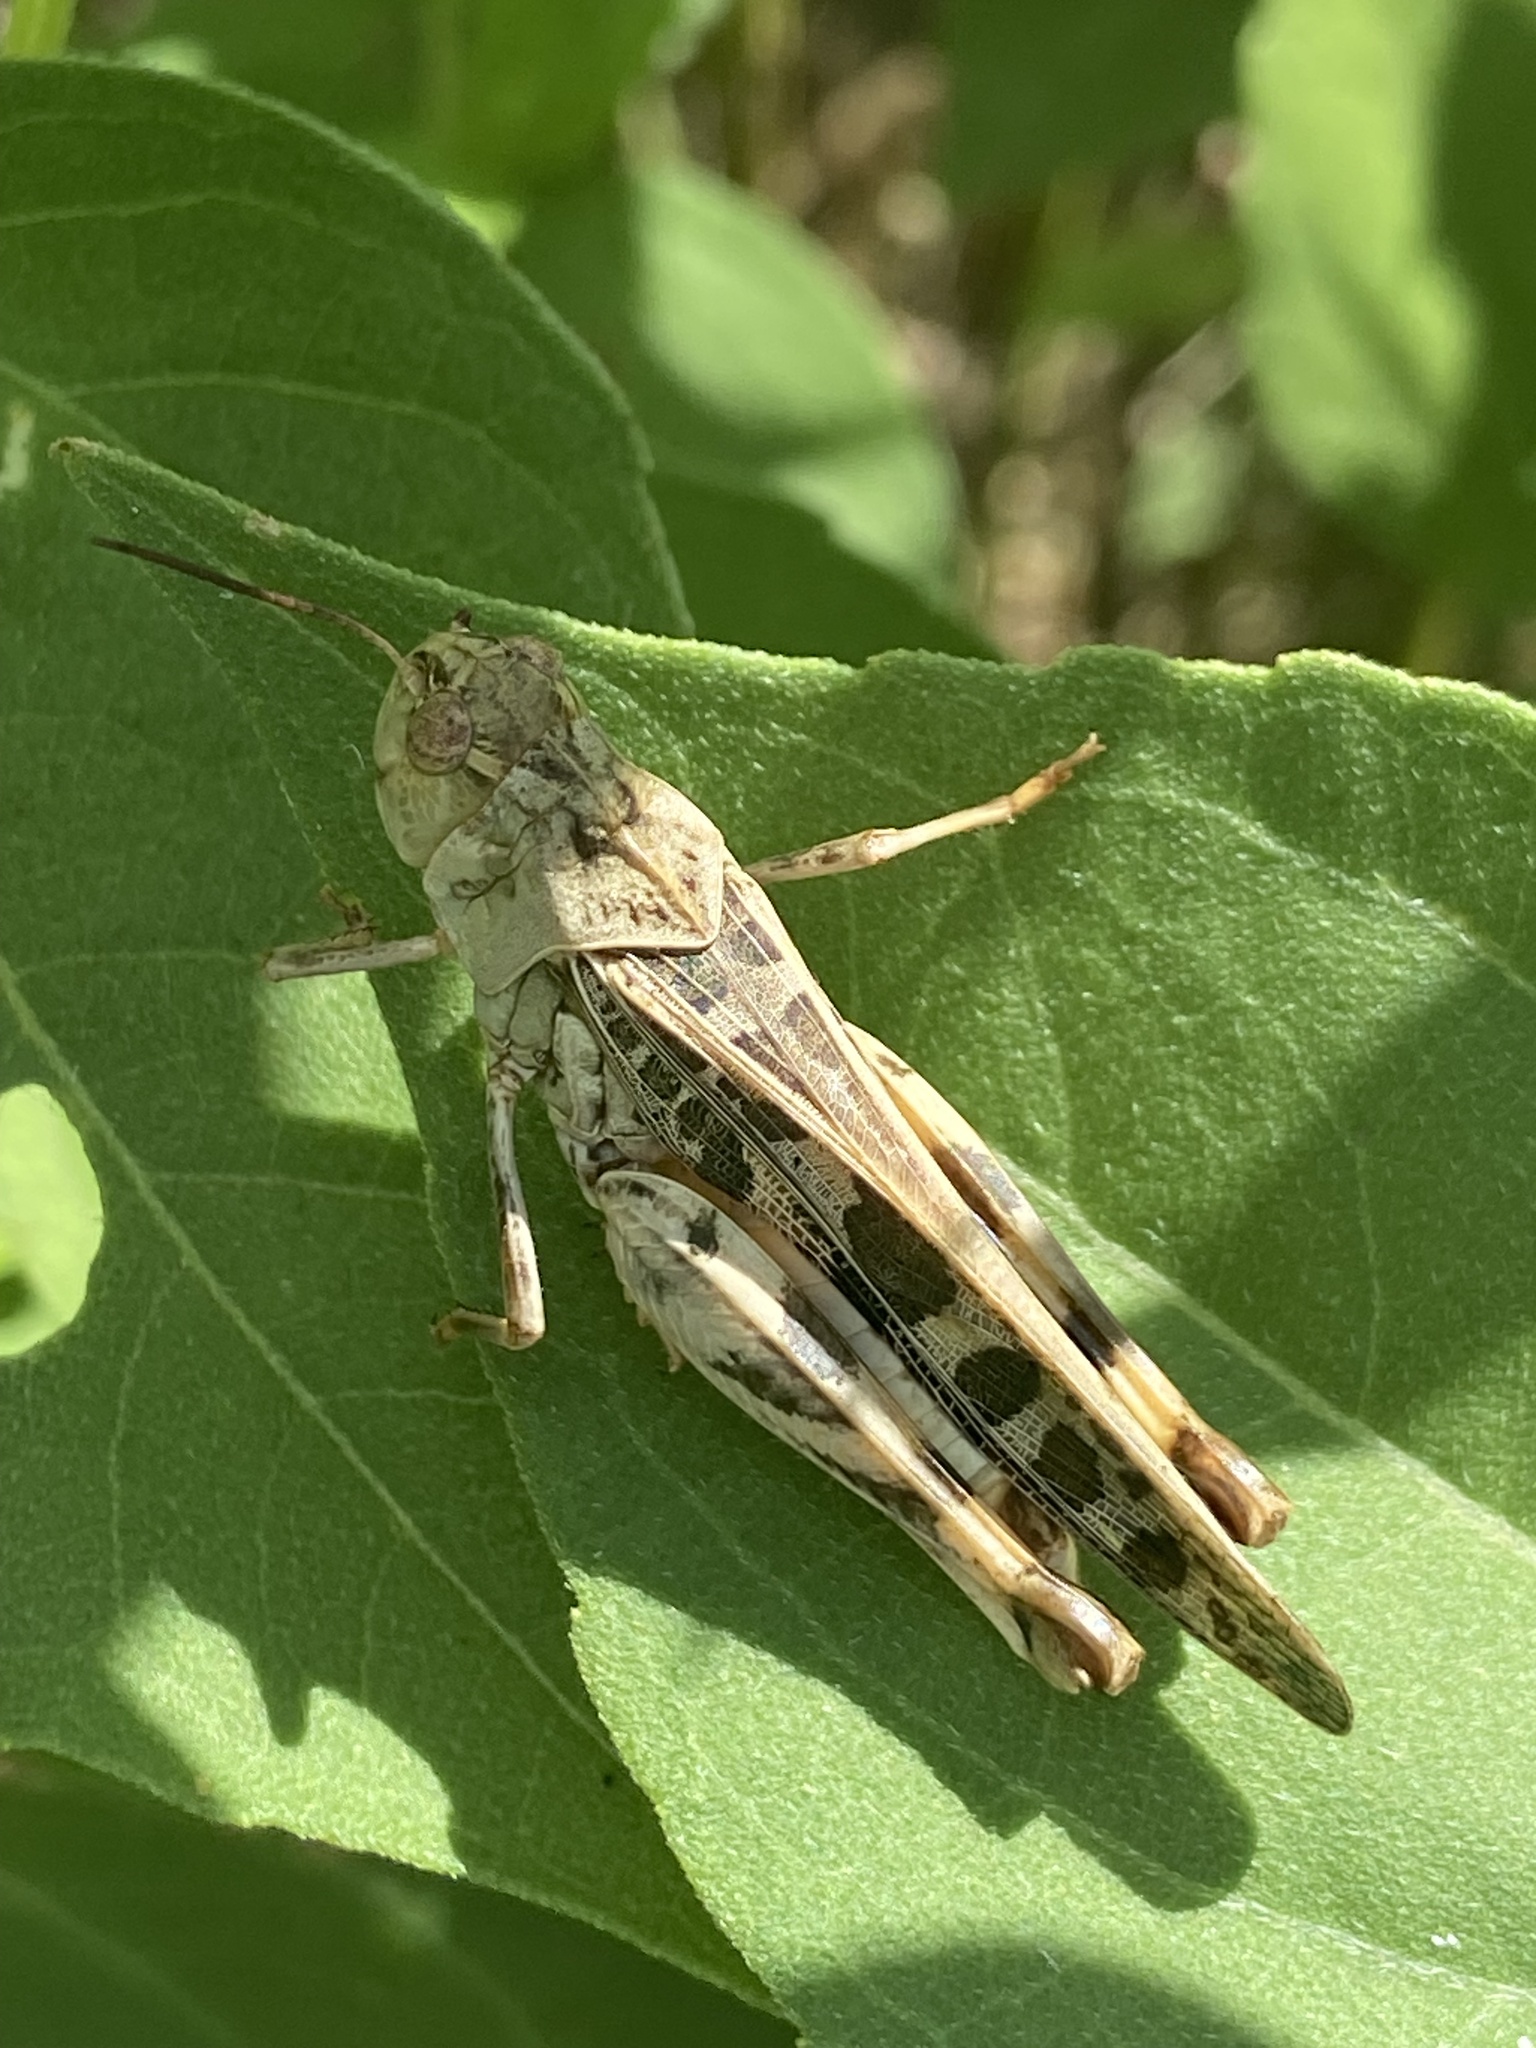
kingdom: Animalia
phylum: Arthropoda
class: Insecta
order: Orthoptera
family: Acrididae
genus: Hippiscus
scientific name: Hippiscus ocelote
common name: Wrinkled grasshopper
